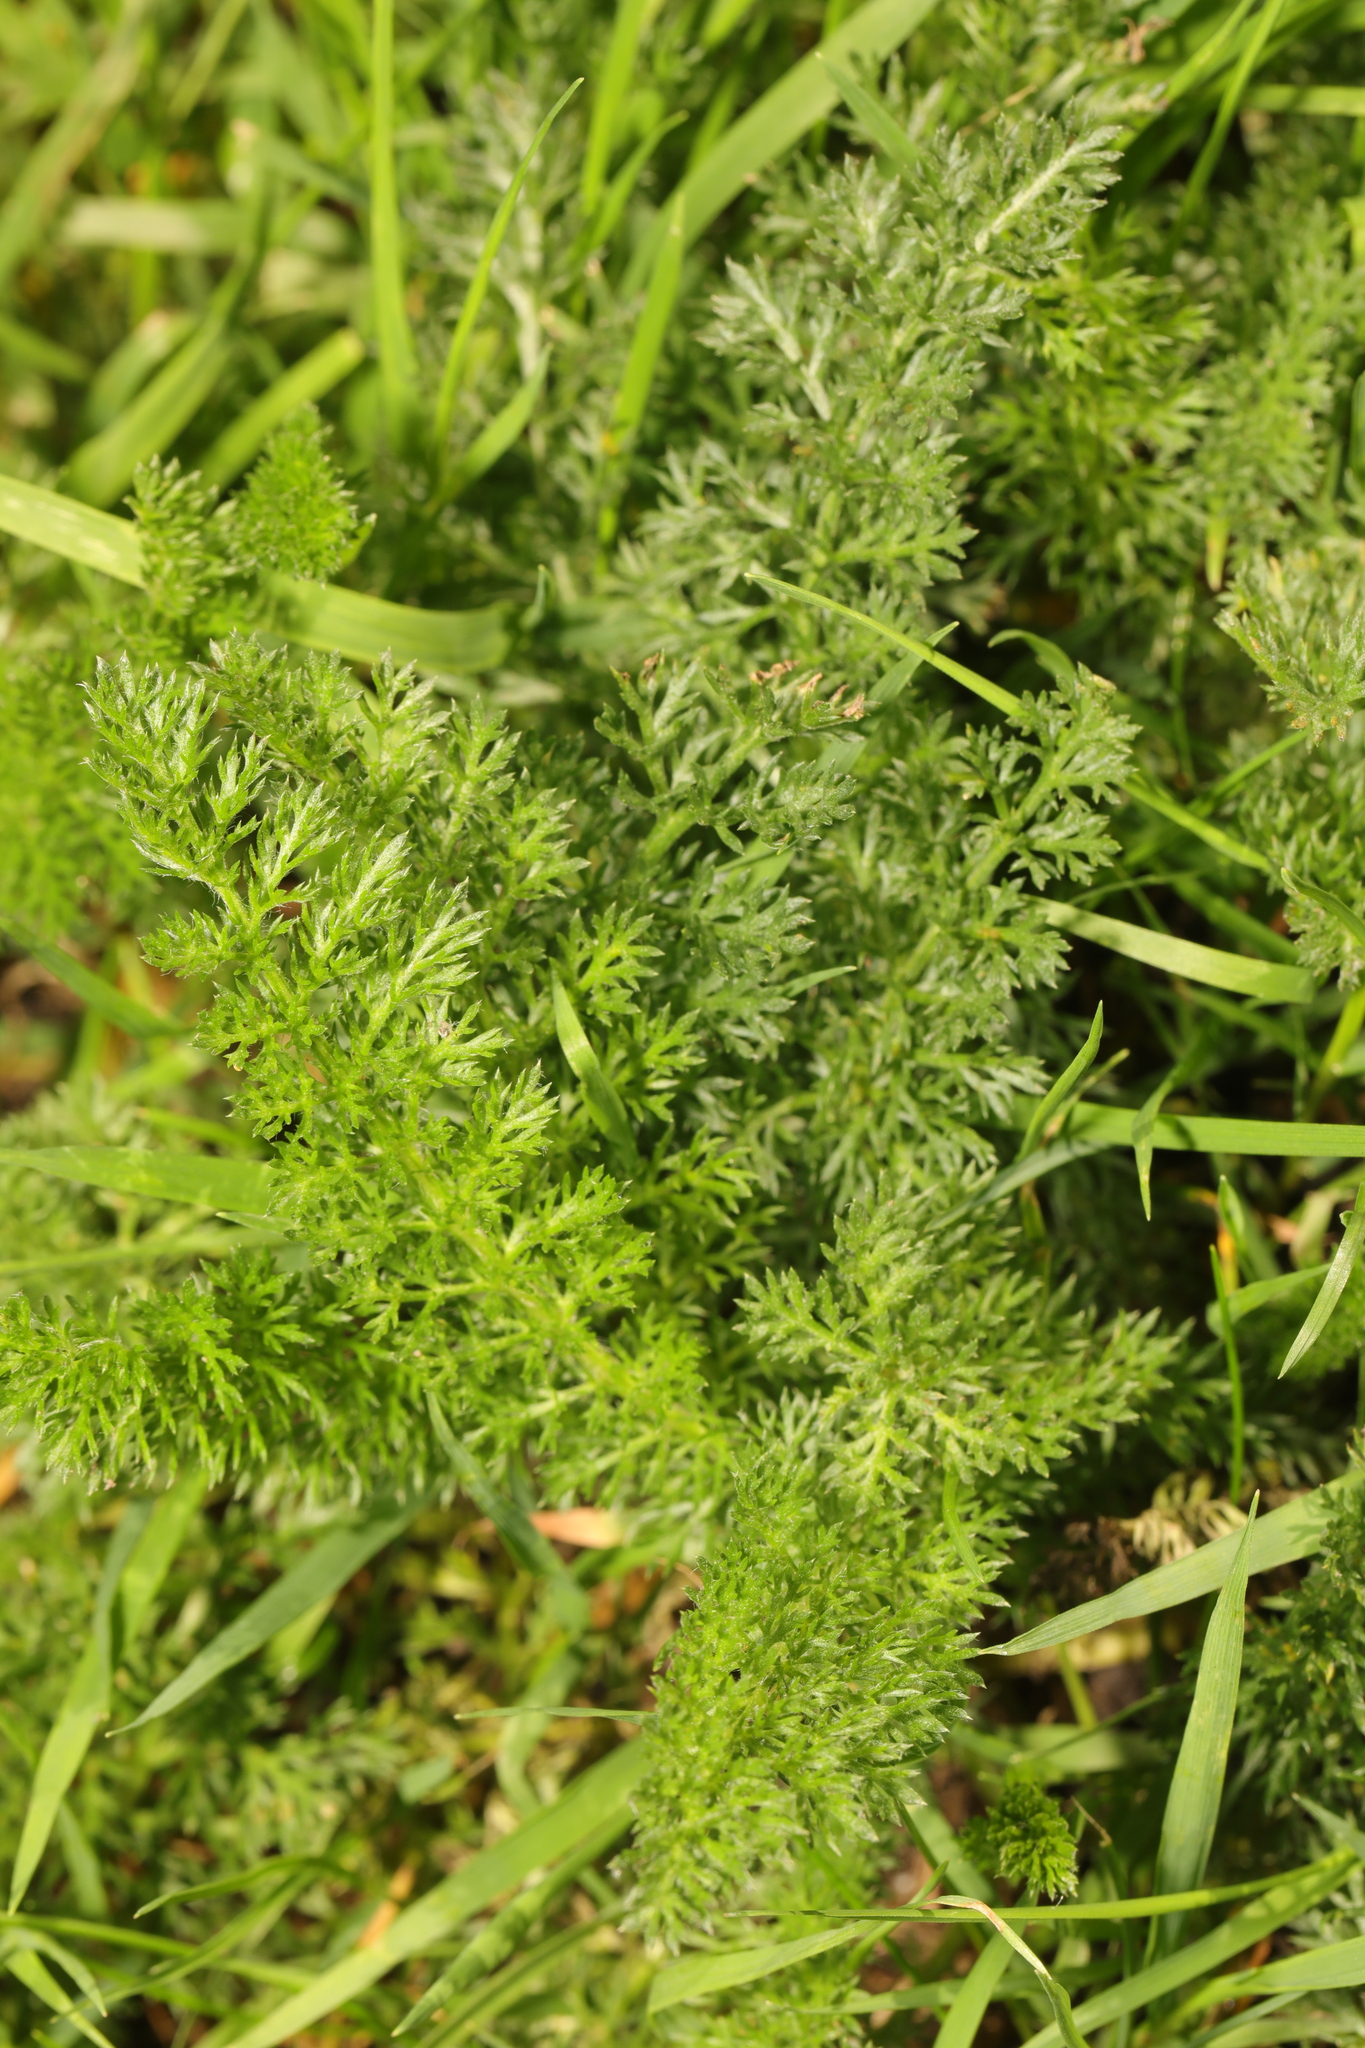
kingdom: Plantae
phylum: Tracheophyta
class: Magnoliopsida
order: Asterales
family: Asteraceae
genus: Achillea
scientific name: Achillea millefolium
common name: Yarrow
